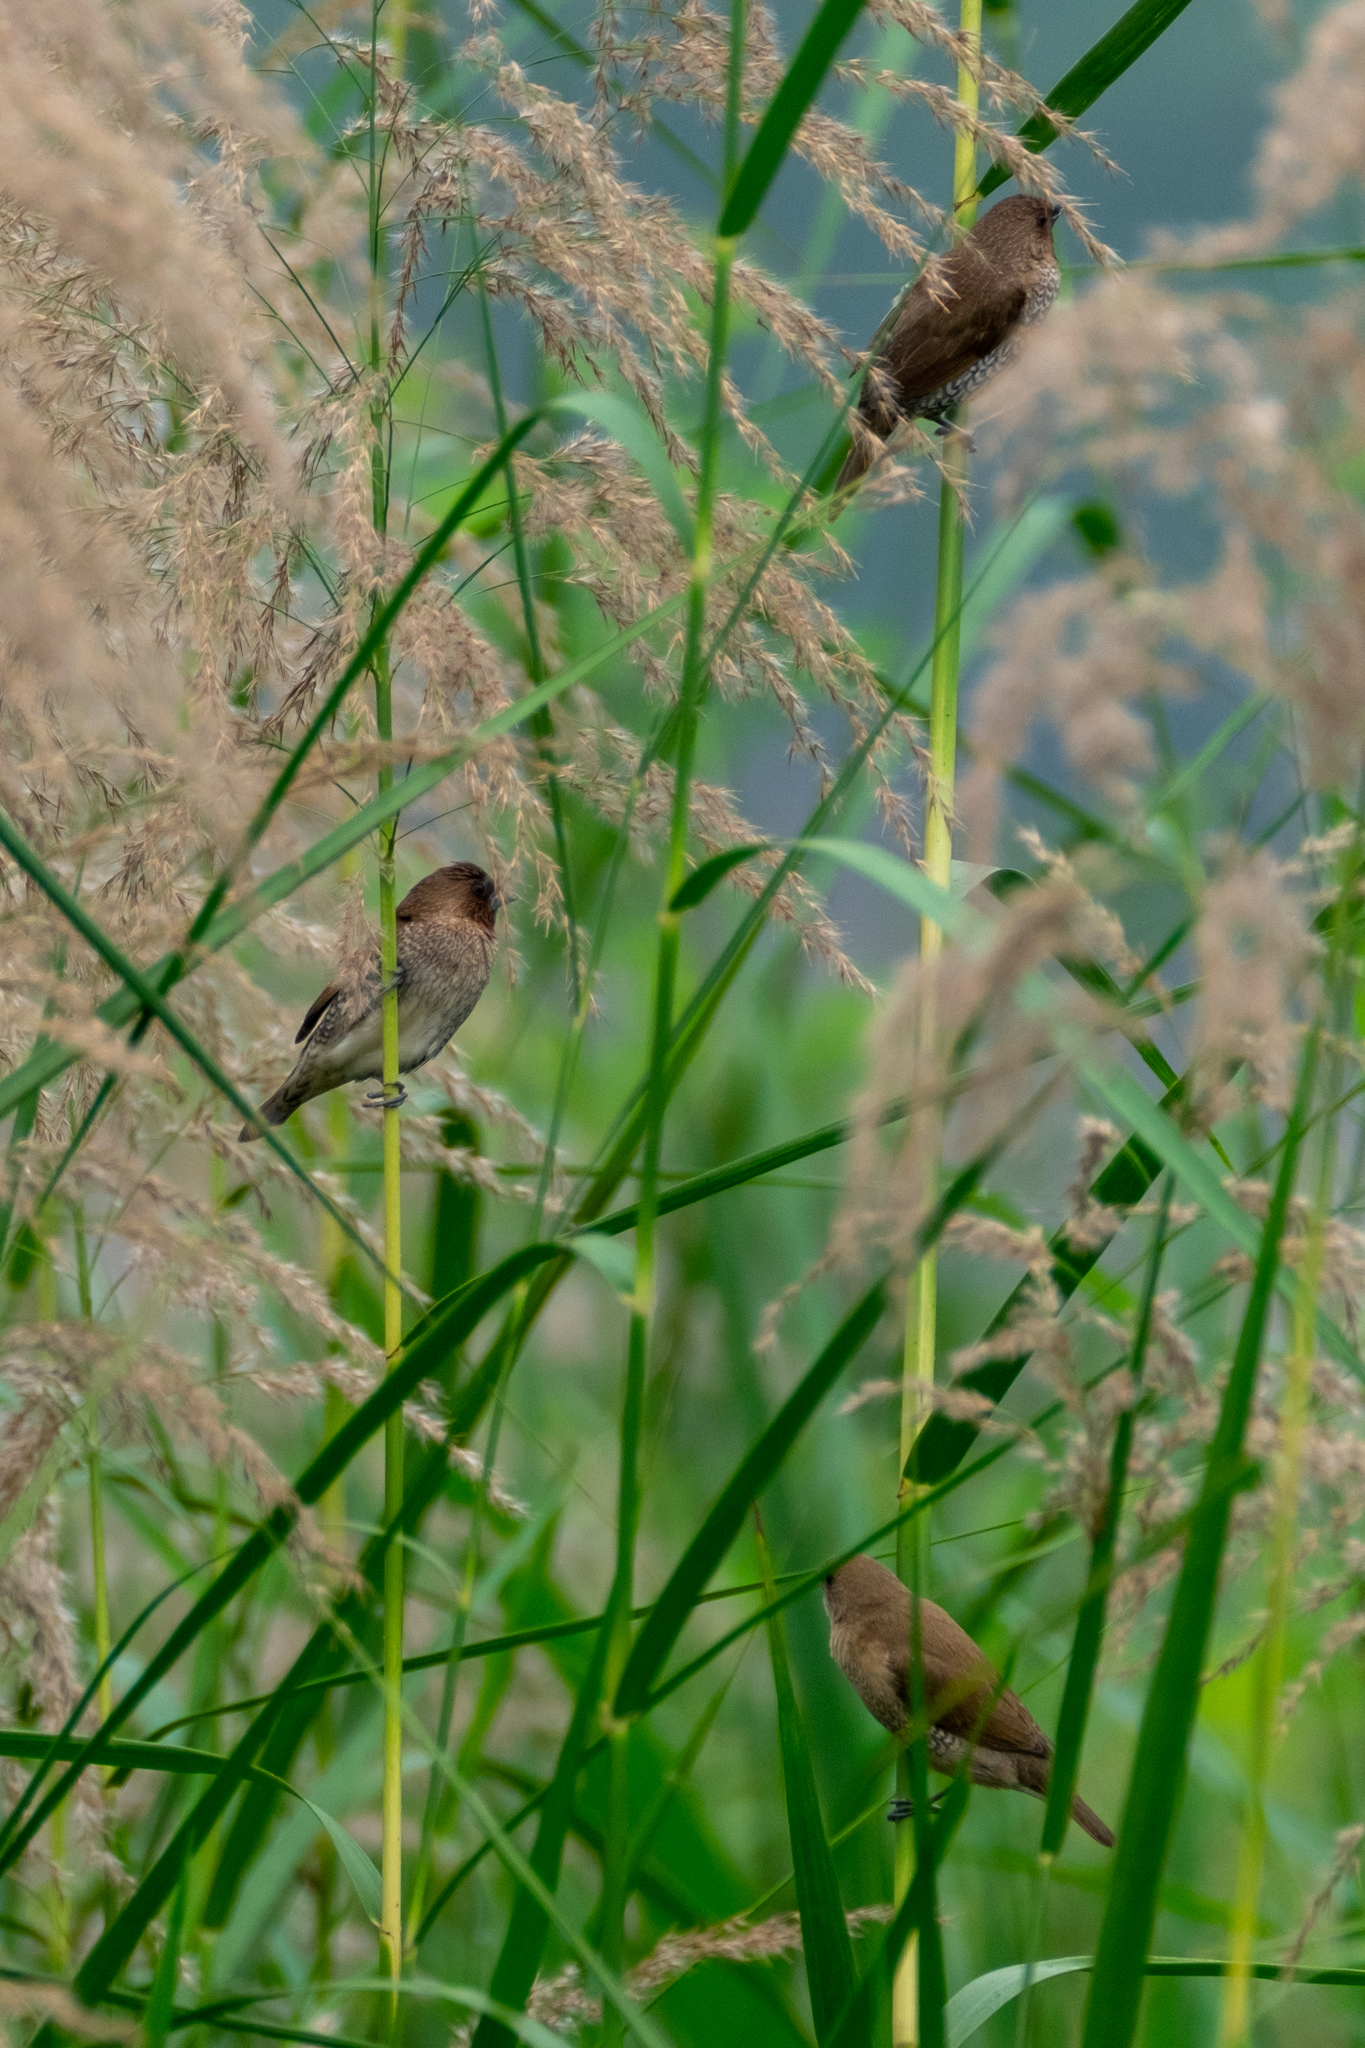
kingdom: Animalia
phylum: Chordata
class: Aves
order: Passeriformes
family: Estrildidae
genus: Lonchura
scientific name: Lonchura punctulata
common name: Scaly-breasted munia
